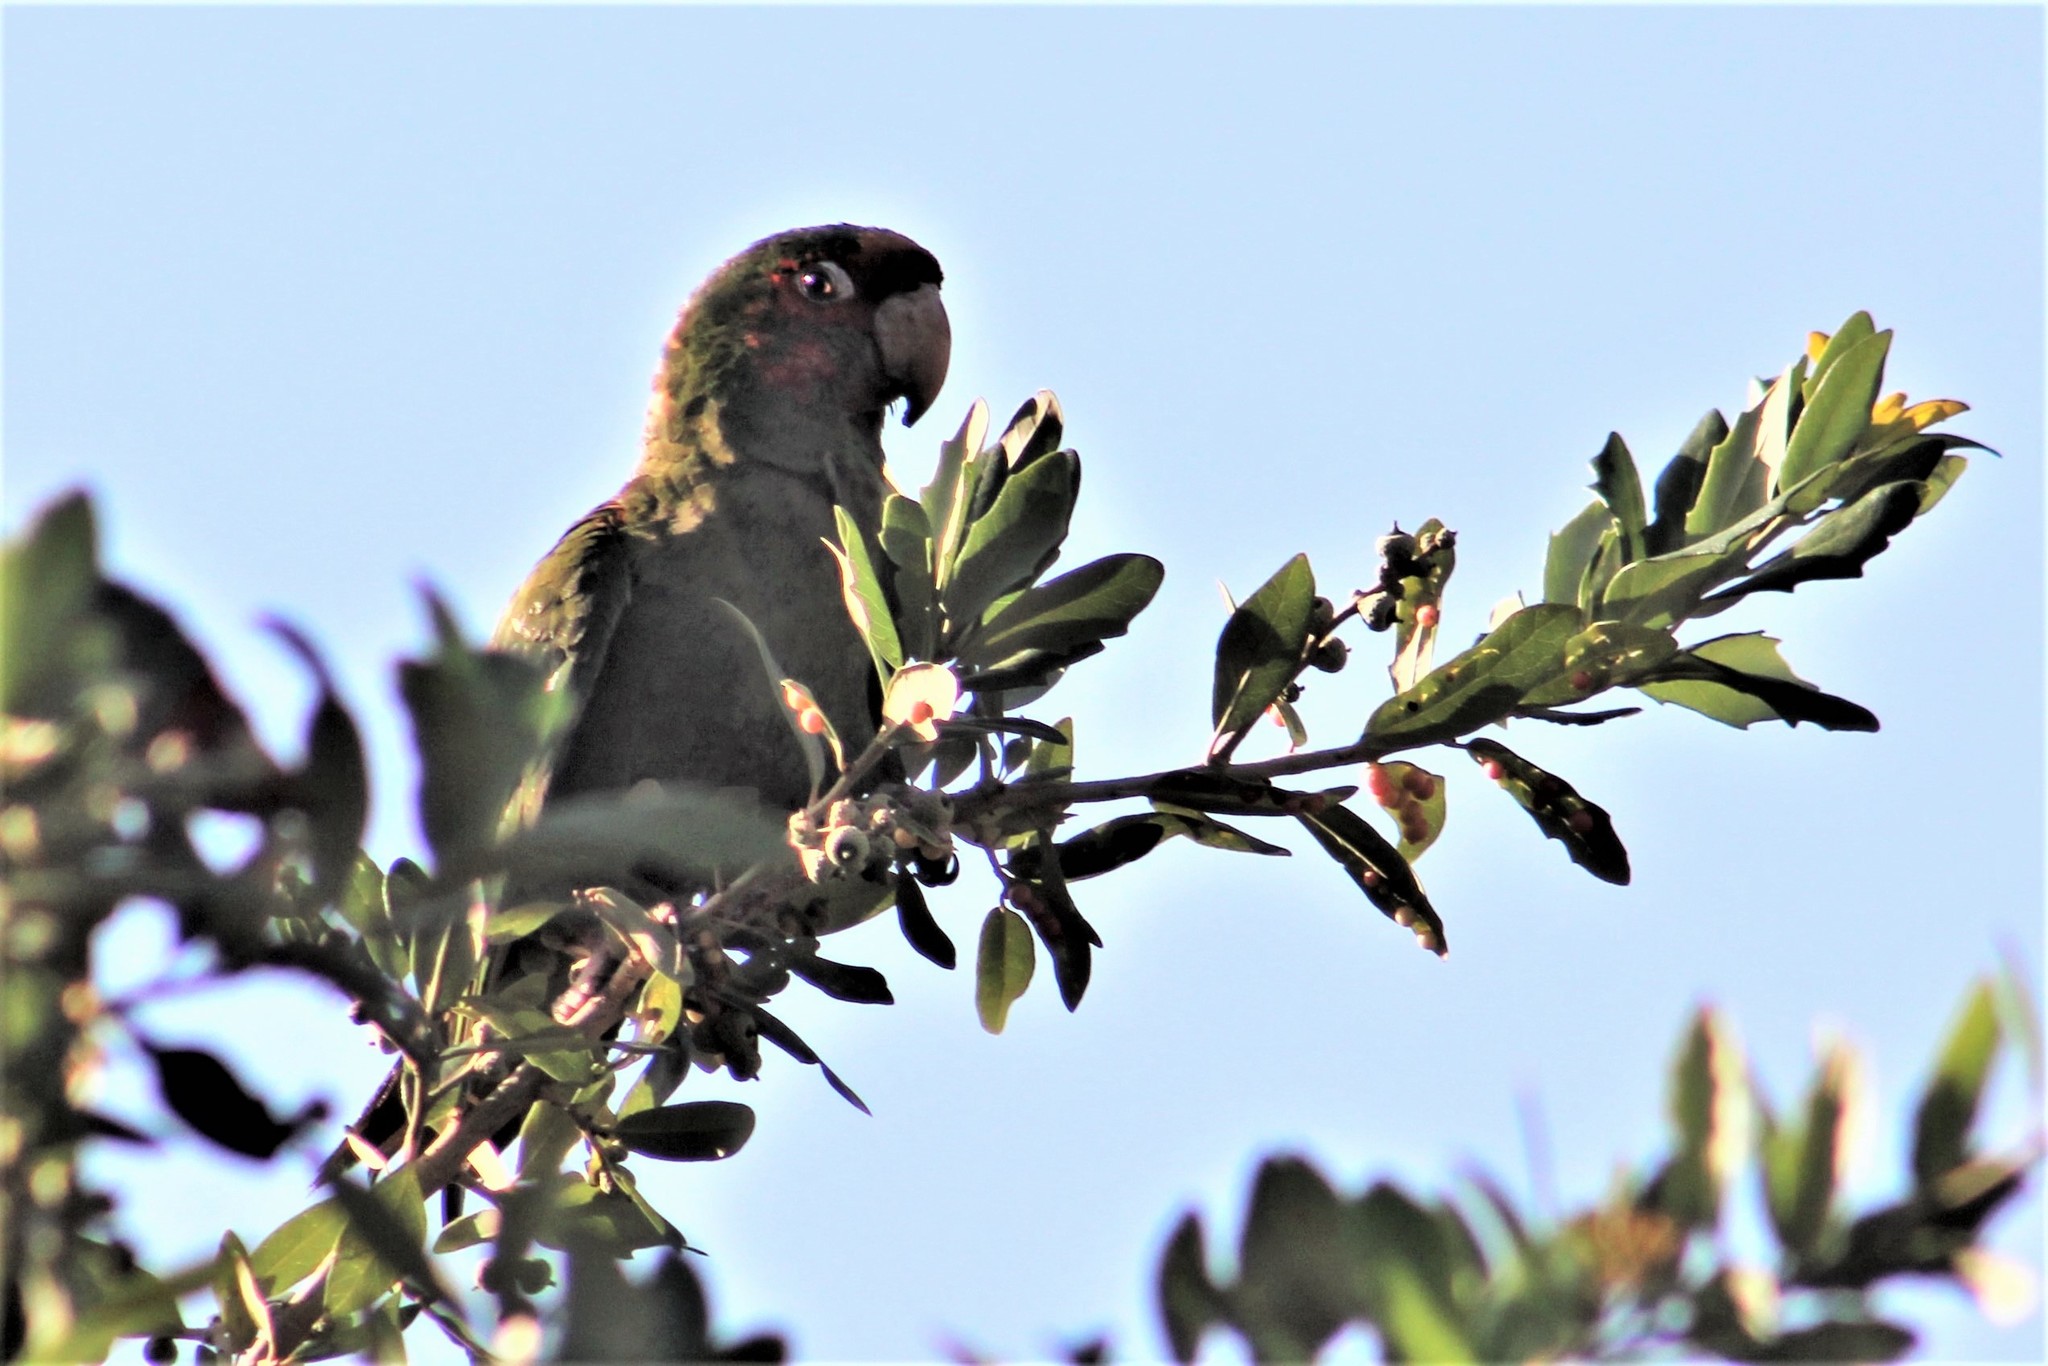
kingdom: Animalia
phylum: Chordata
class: Aves
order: Psittaciformes
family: Psittacidae
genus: Aratinga
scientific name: Aratinga mitrata
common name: Mitred parakeet
